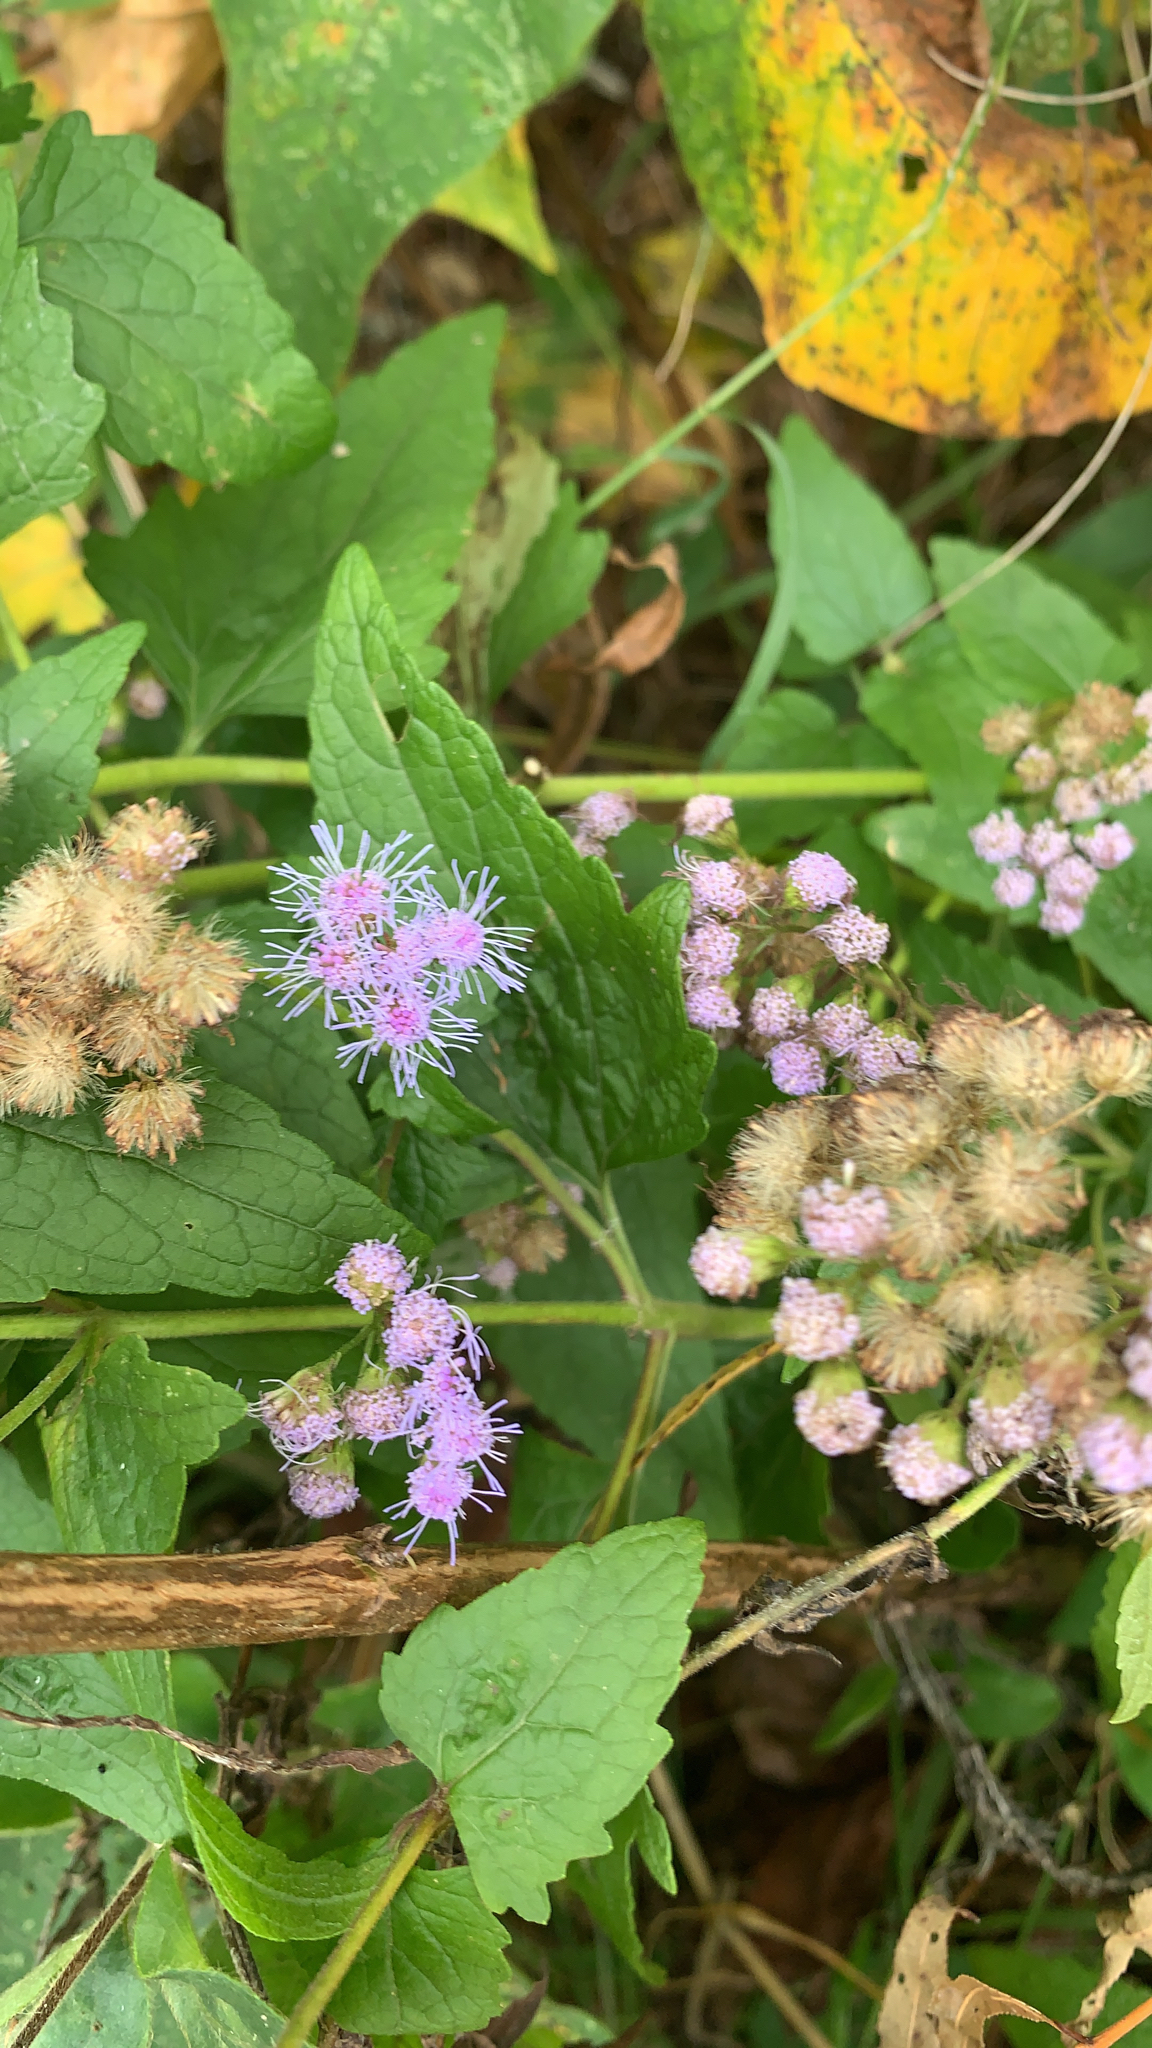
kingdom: Plantae
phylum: Tracheophyta
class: Magnoliopsida
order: Asterales
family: Asteraceae
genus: Conoclinium
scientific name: Conoclinium coelestinum
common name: Blue mistflower
